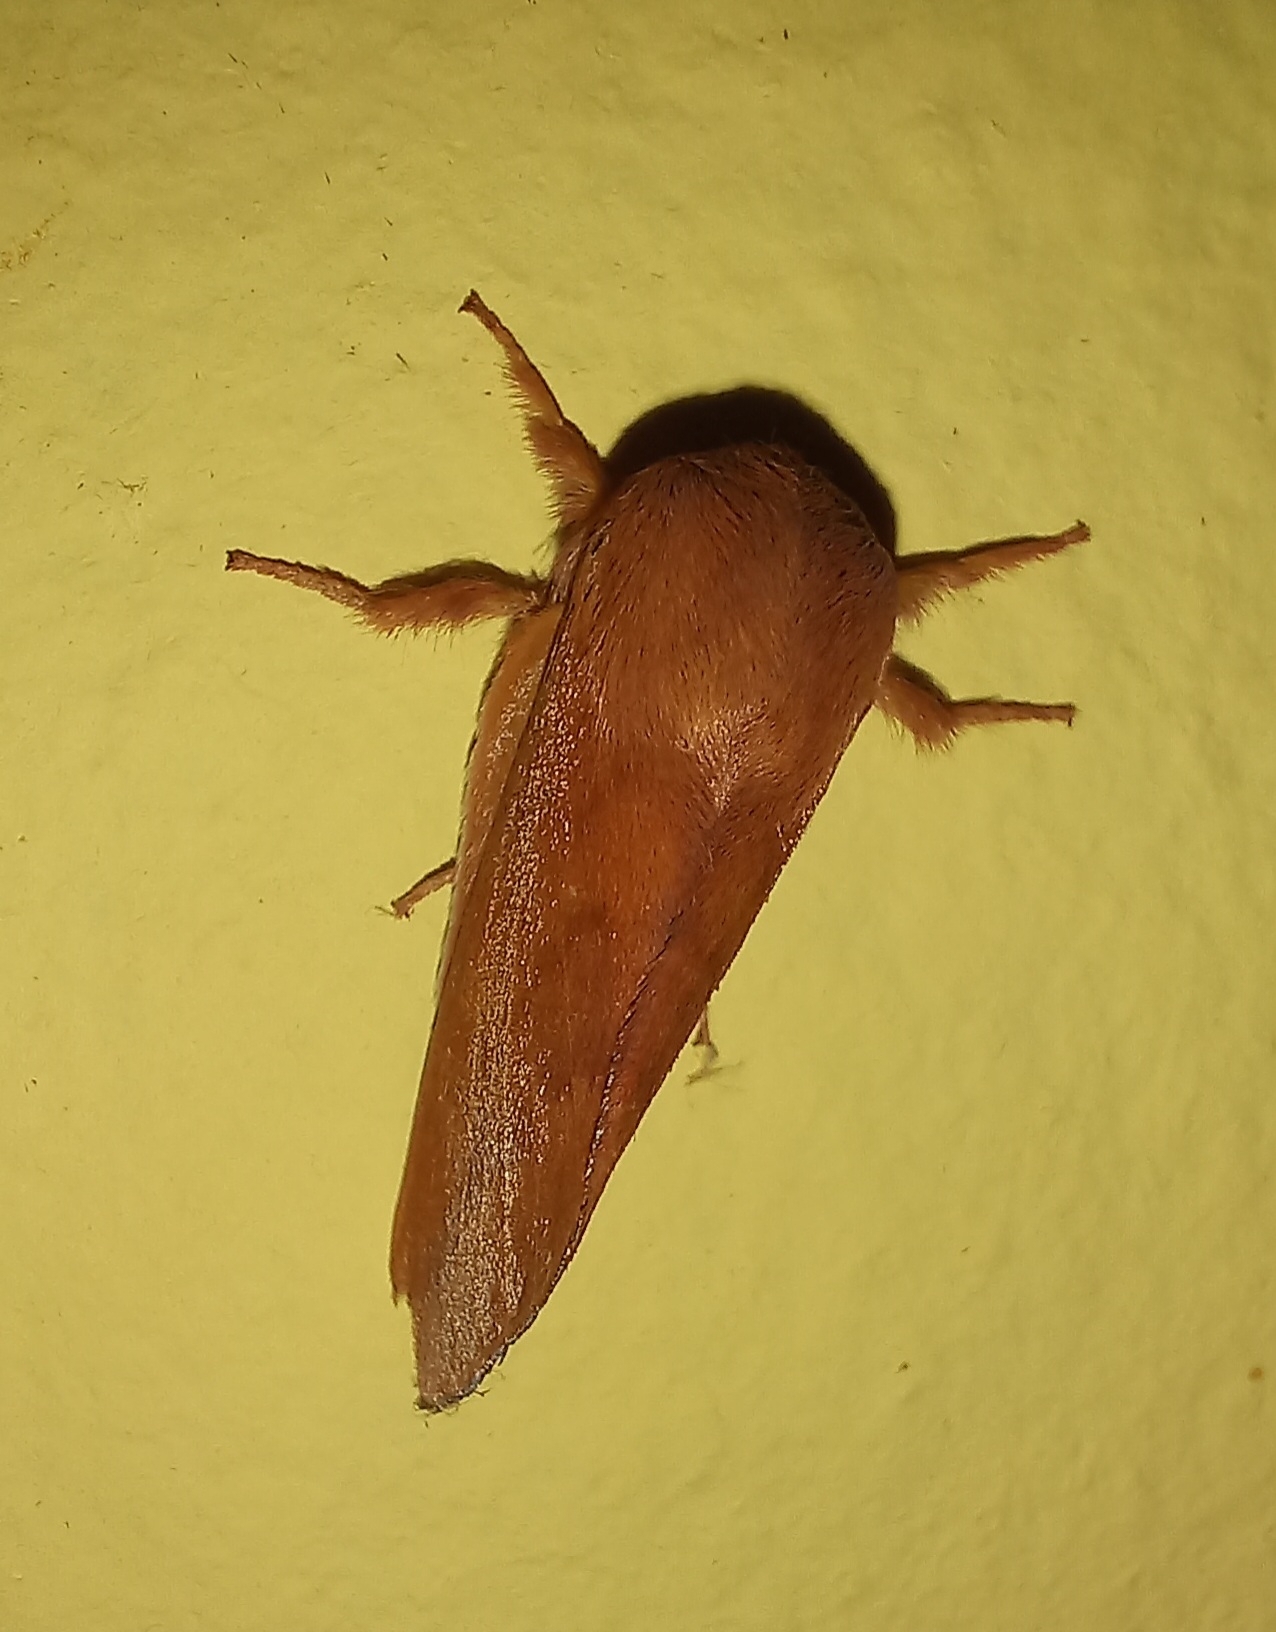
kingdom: Animalia
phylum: Arthropoda
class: Insecta
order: Lepidoptera
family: Limacodidae
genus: Micraphe
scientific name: Micraphe lateritia
